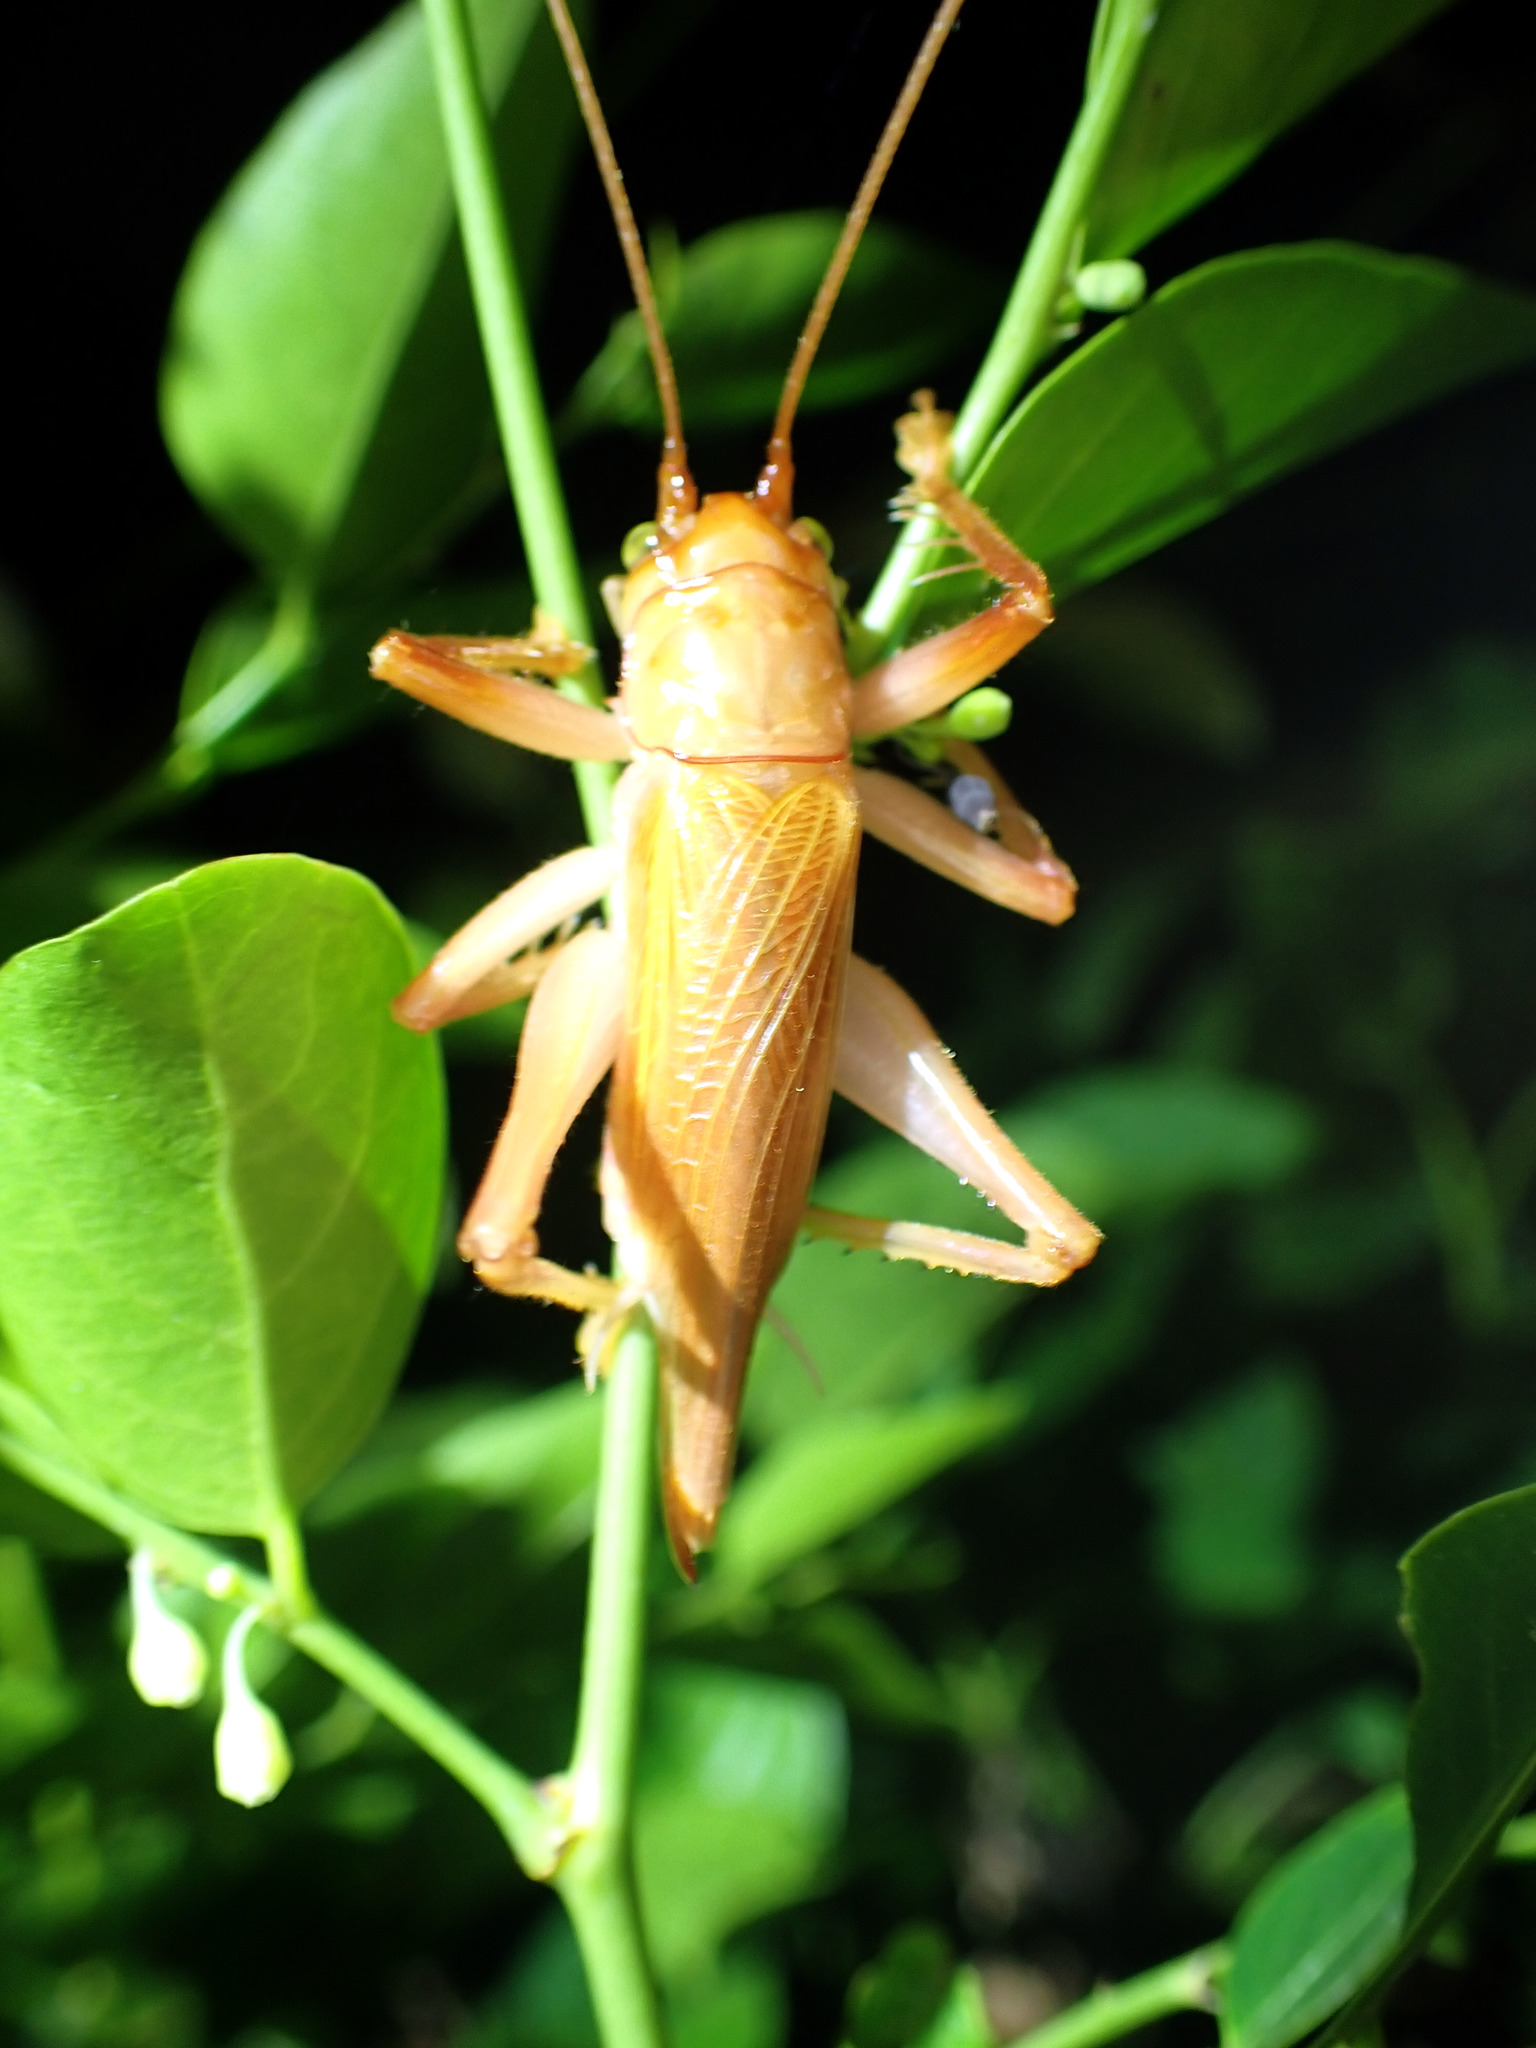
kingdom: Animalia
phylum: Arthropoda
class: Insecta
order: Orthoptera
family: Gryllacrididae
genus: Xanthogryllacris
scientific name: Xanthogryllacris punctipennis
